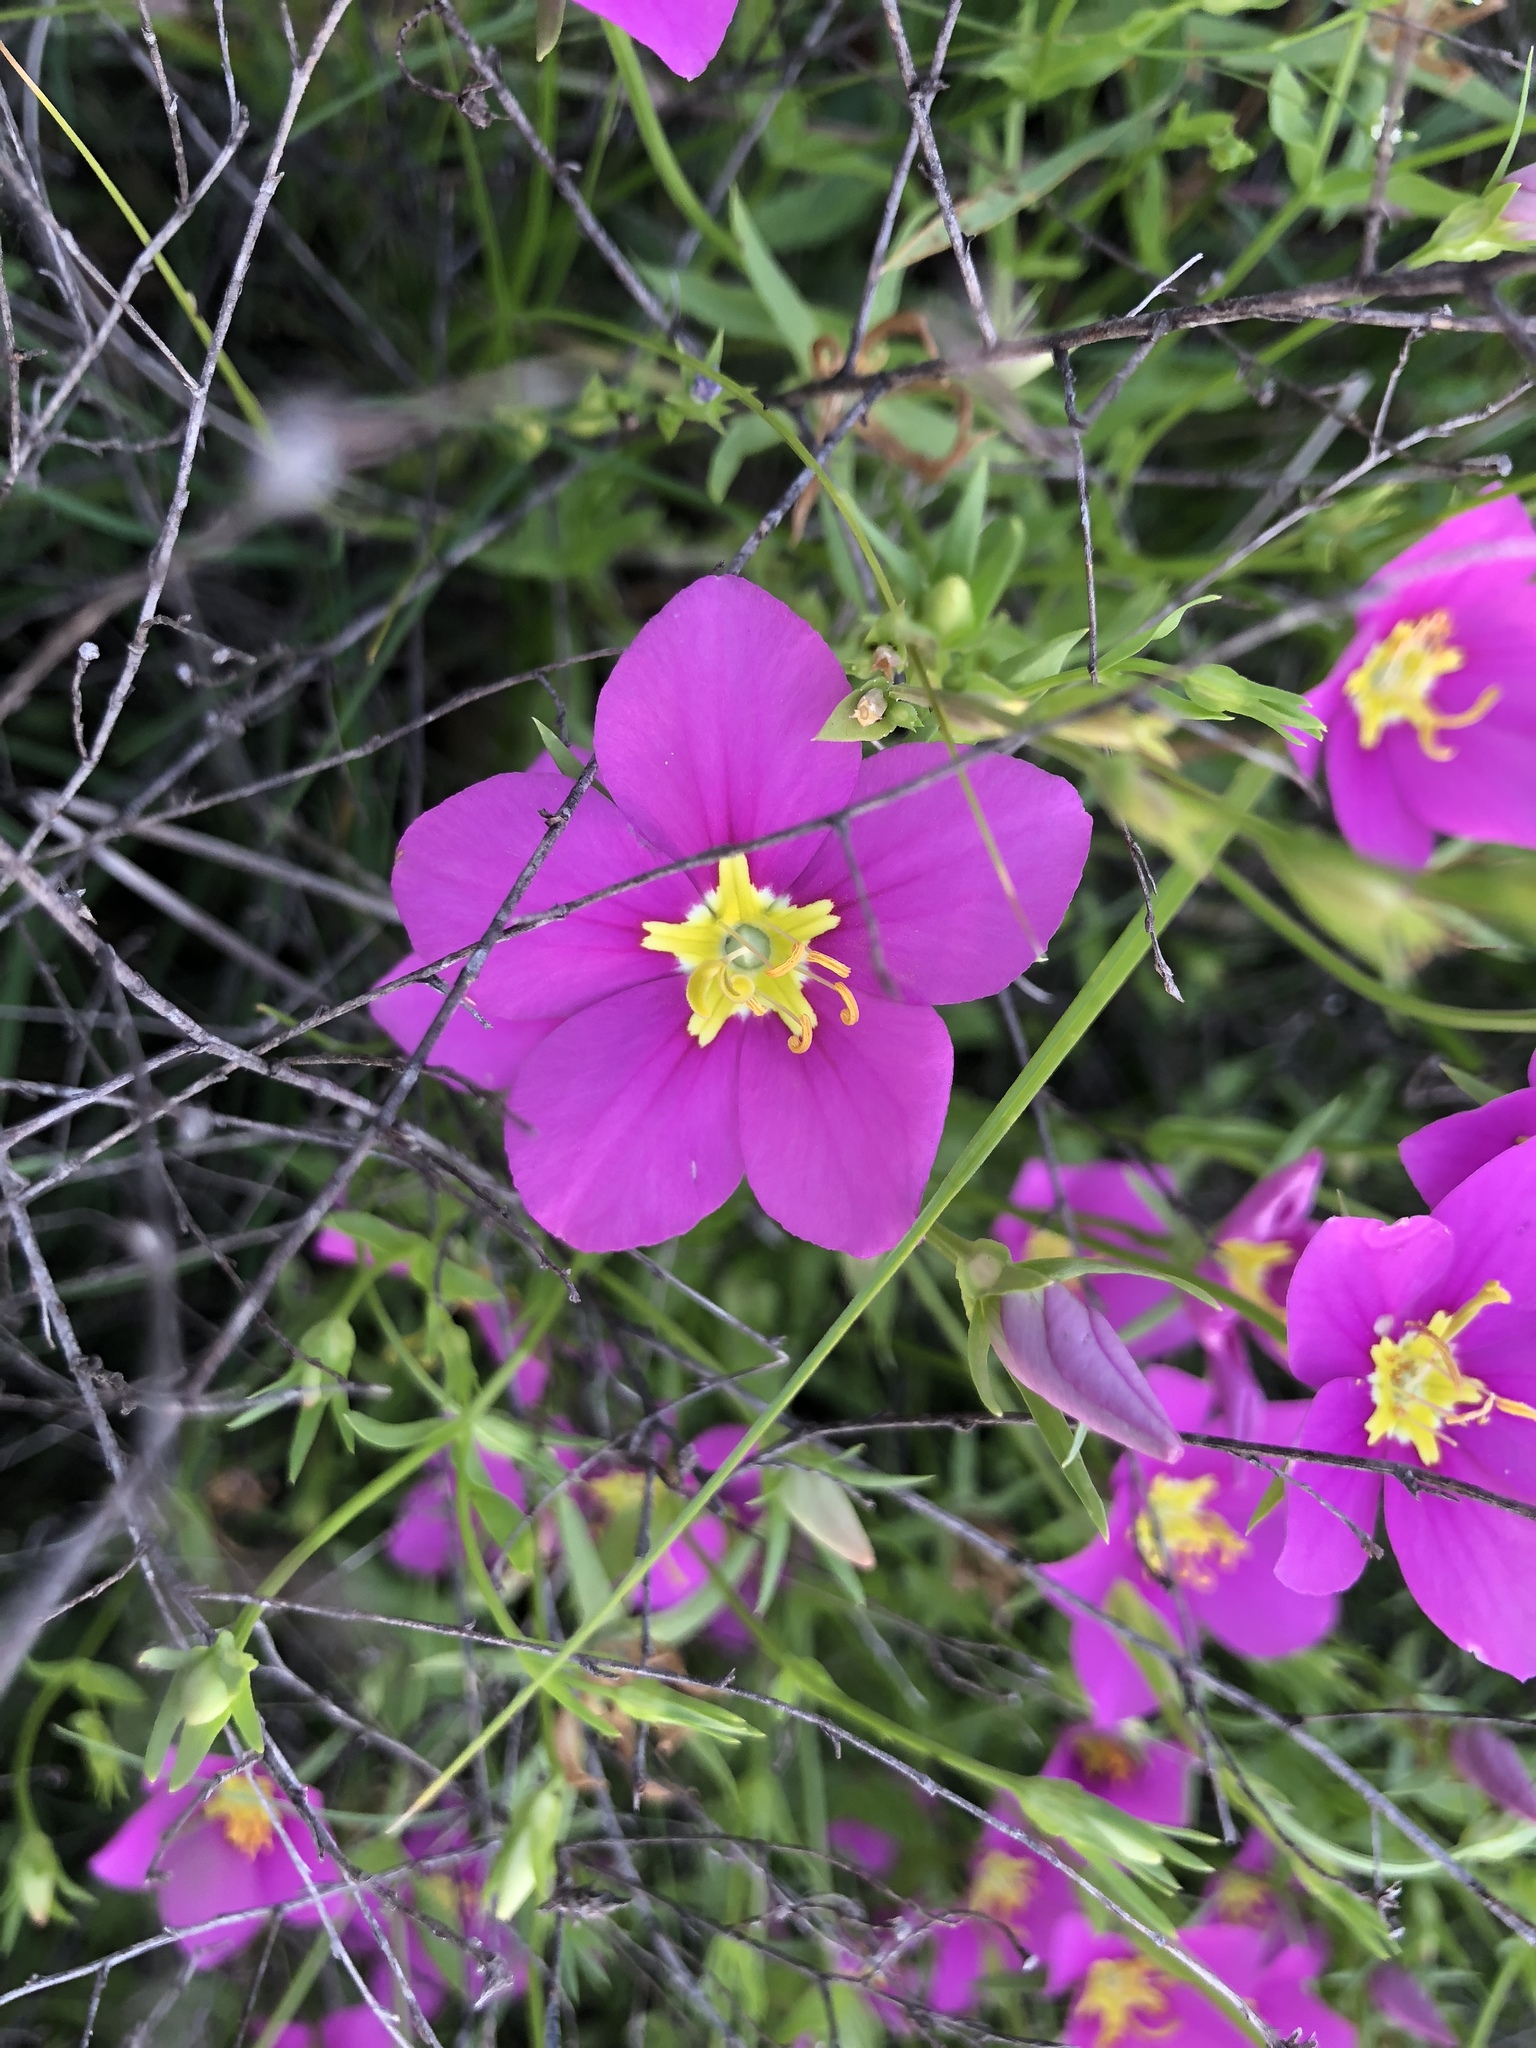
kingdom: Plantae
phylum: Tracheophyta
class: Magnoliopsida
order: Gentianales
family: Gentianaceae
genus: Sabatia
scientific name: Sabatia campestris
